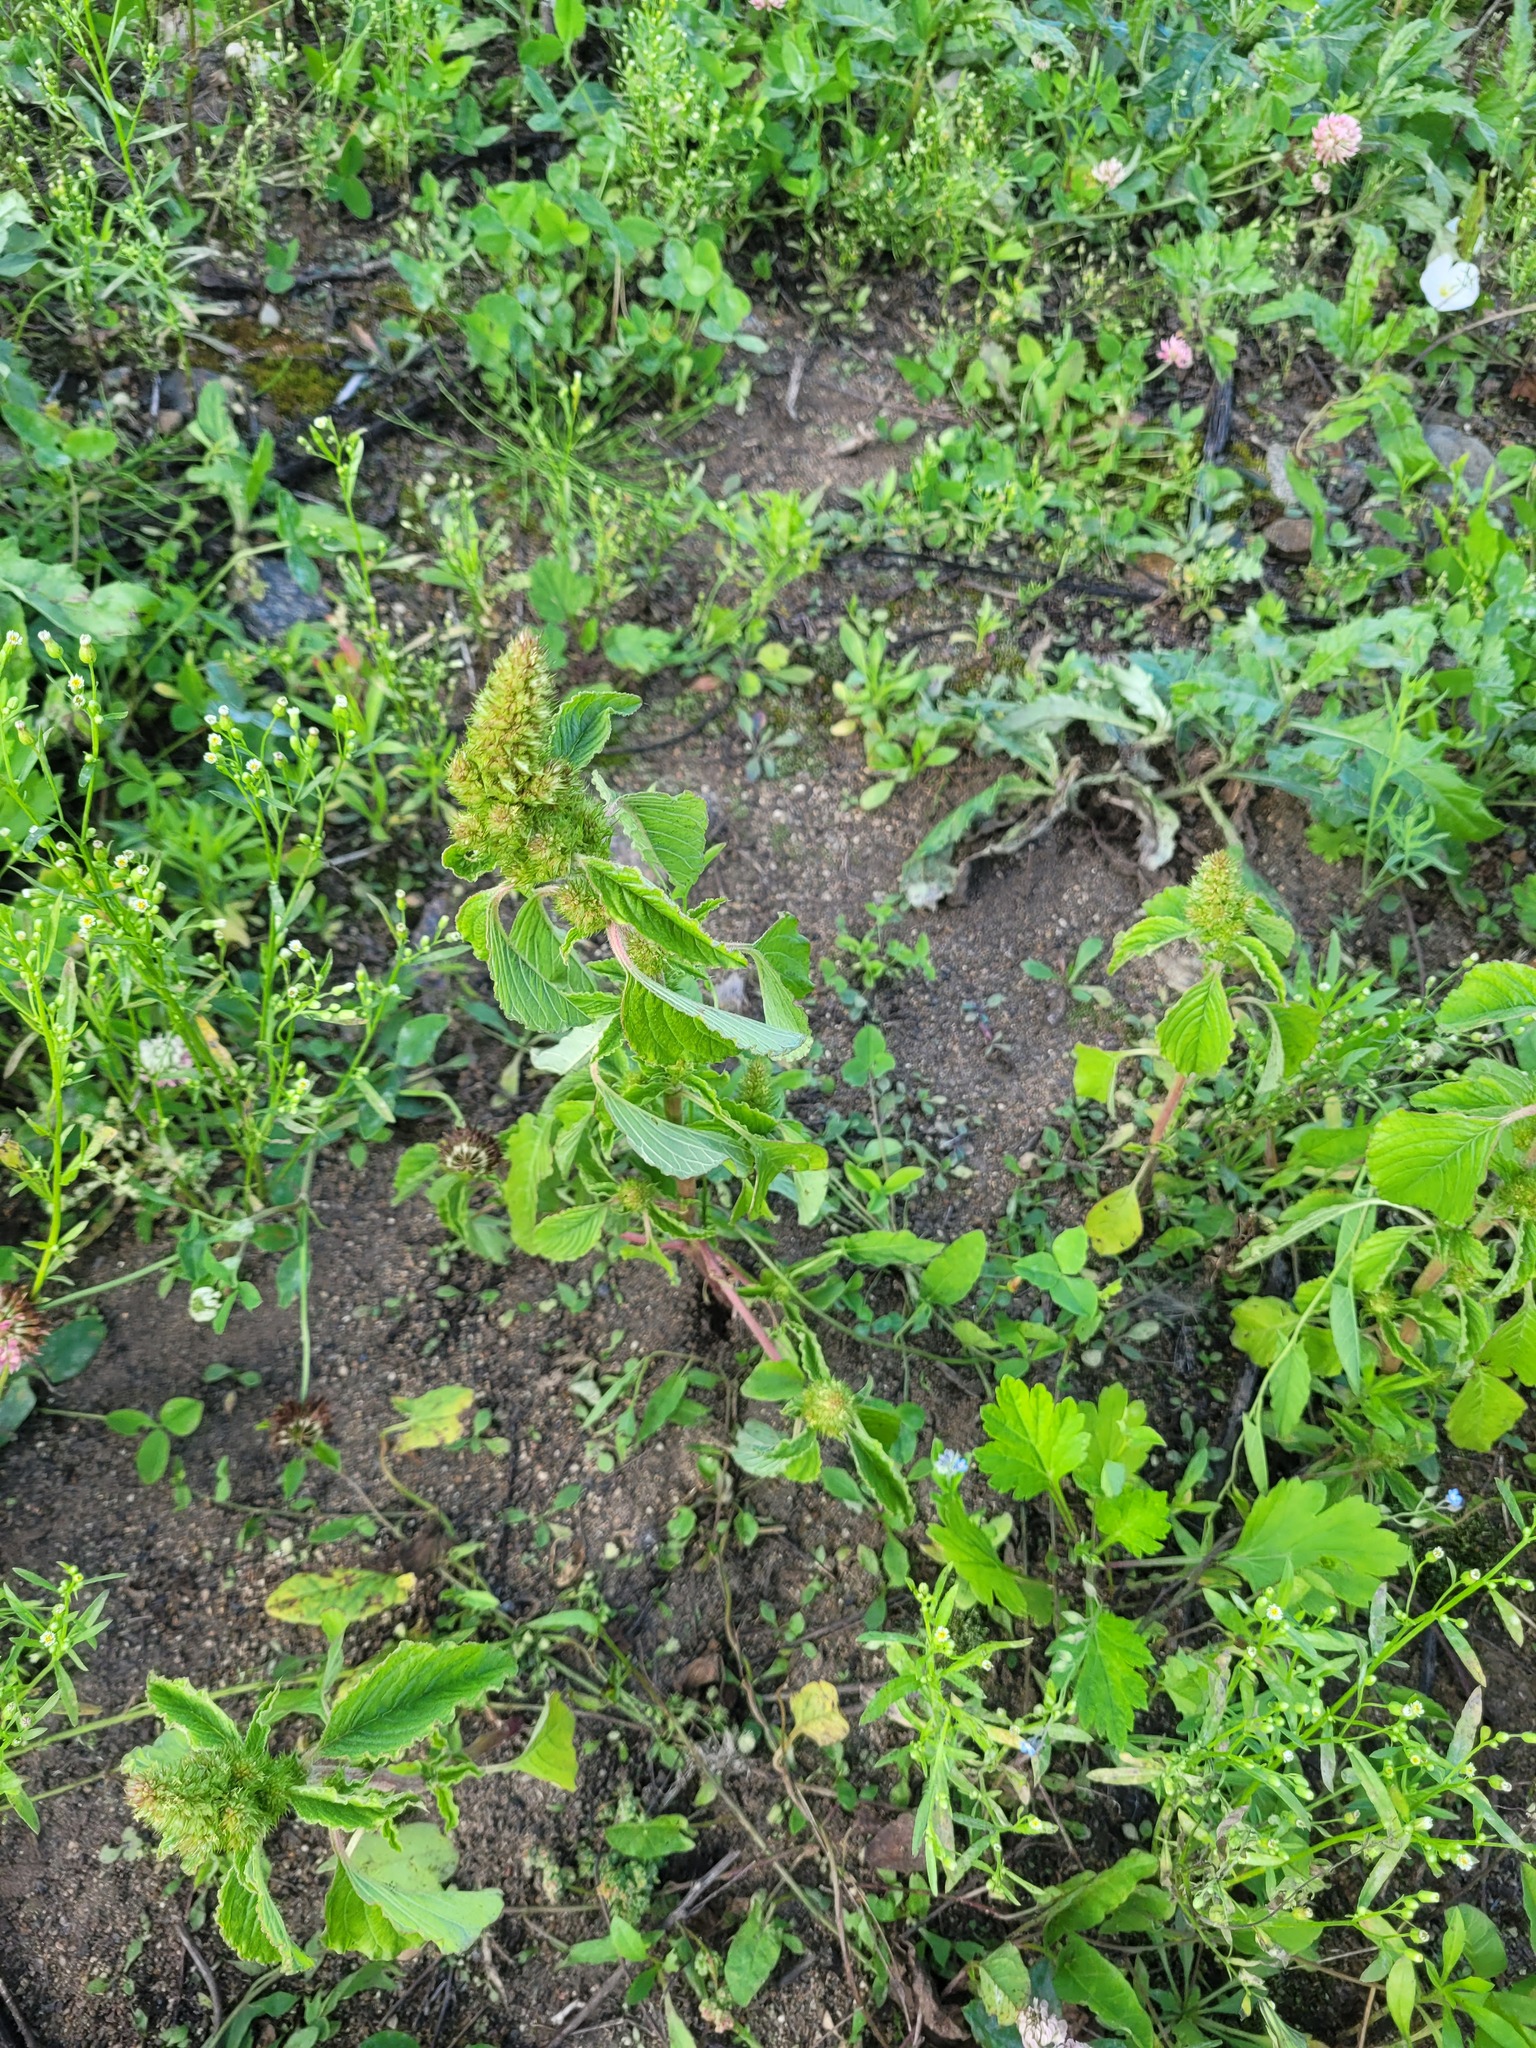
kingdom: Plantae
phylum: Tracheophyta
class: Magnoliopsida
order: Caryophyllales
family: Amaranthaceae
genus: Amaranthus
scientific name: Amaranthus retroflexus
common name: Redroot amaranth
